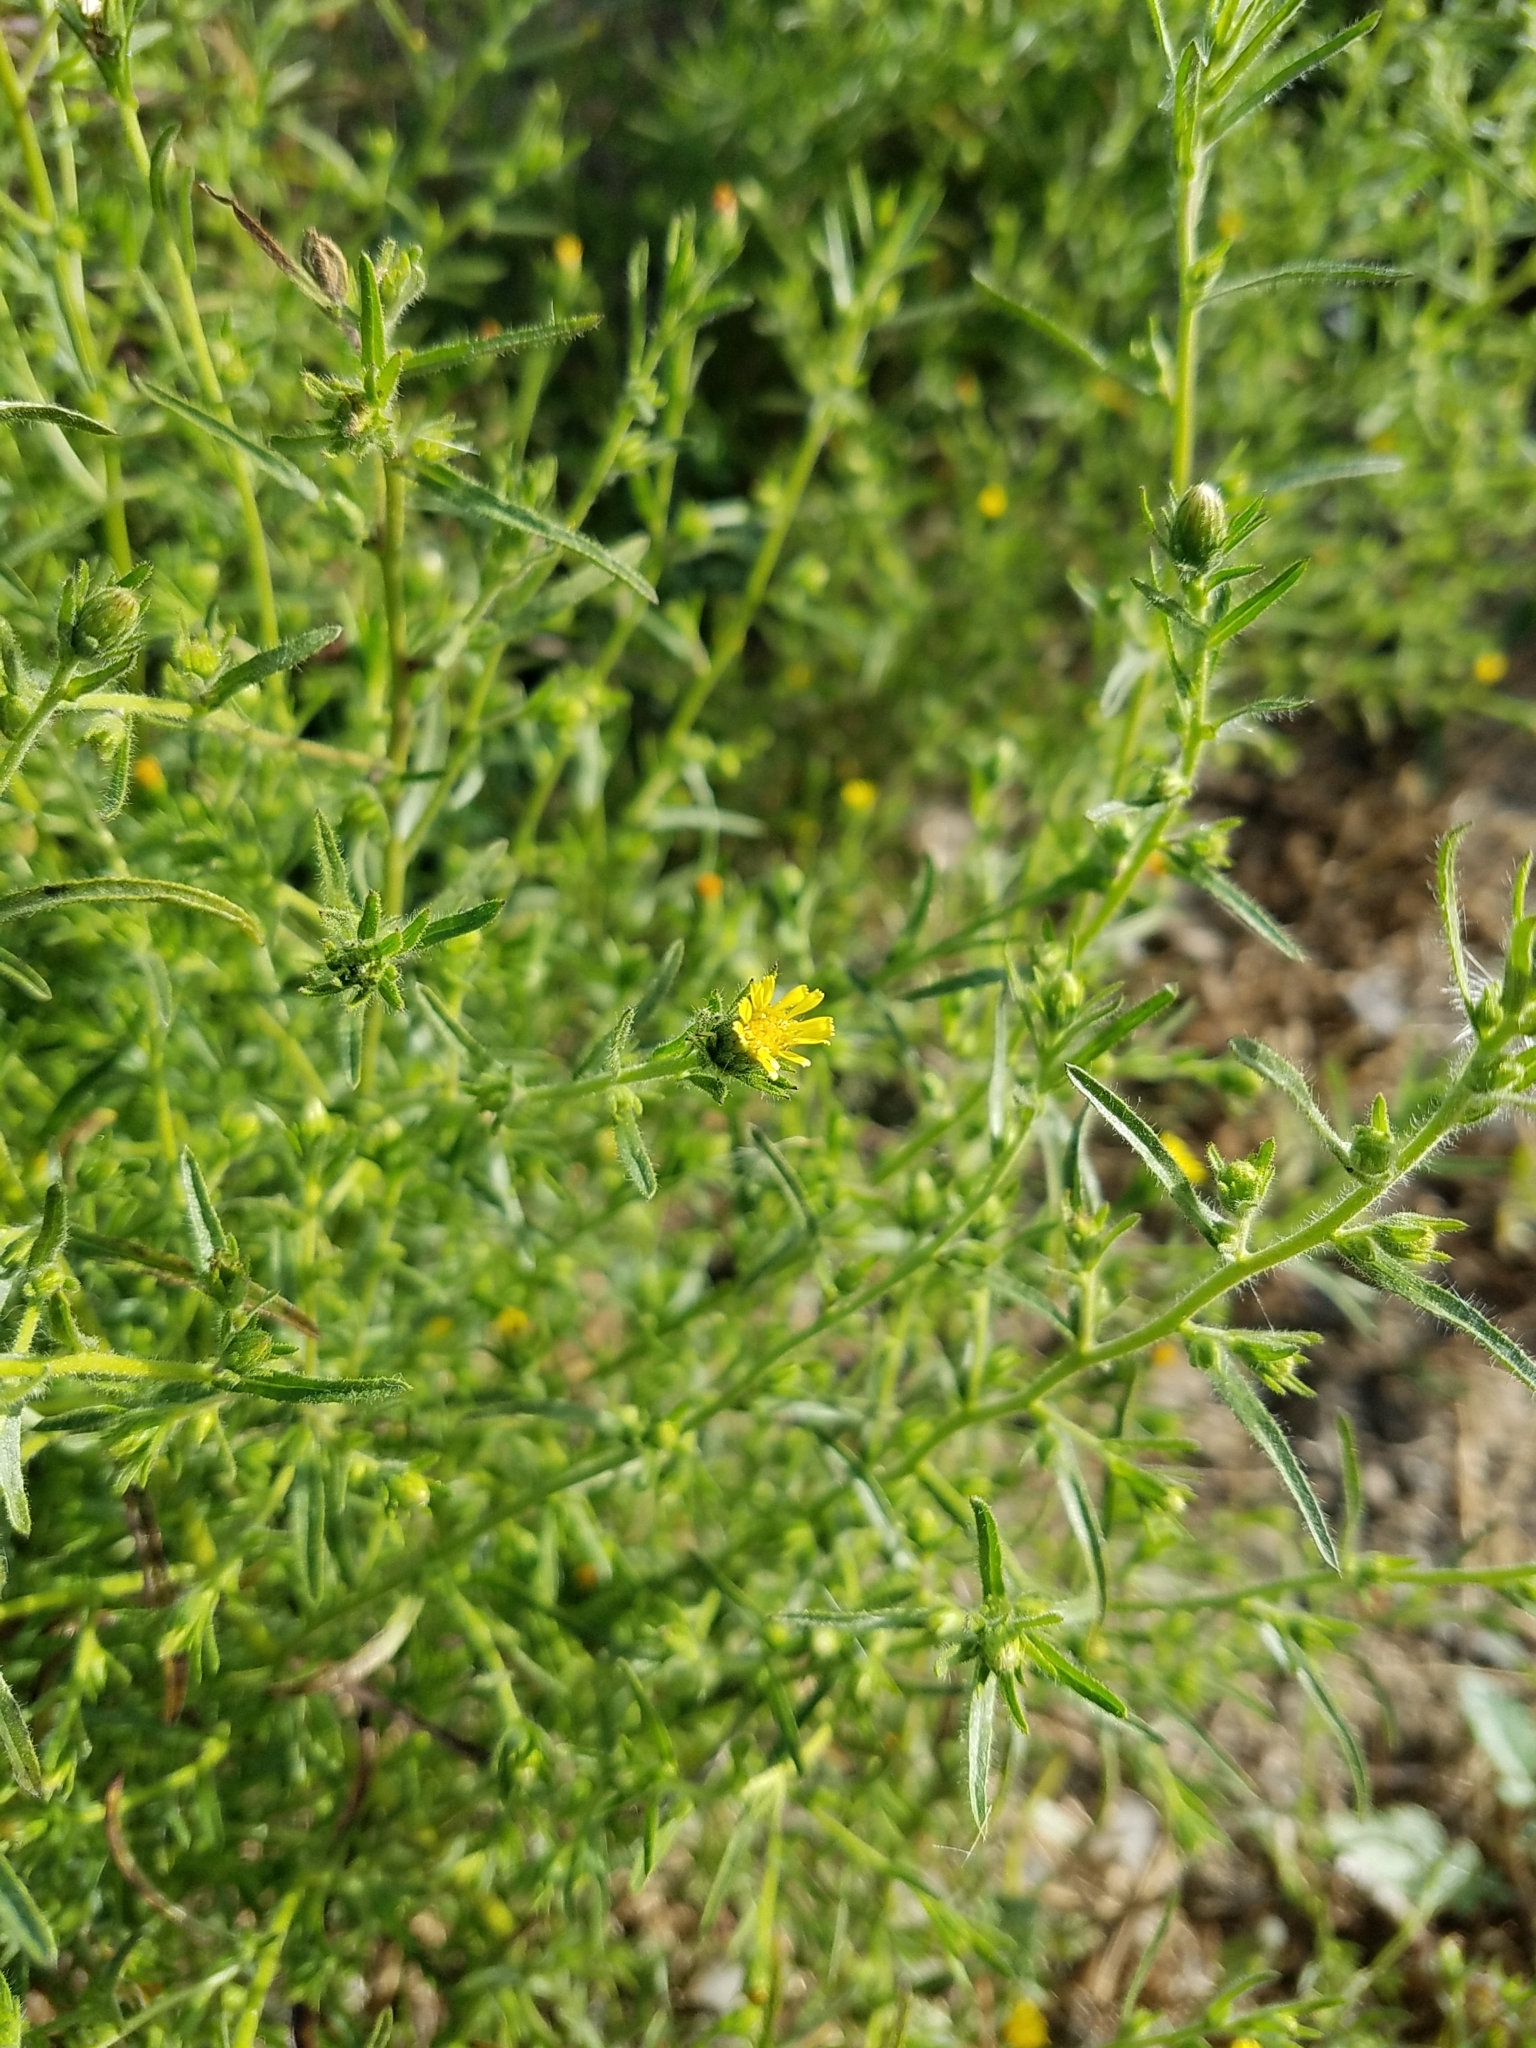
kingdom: Plantae
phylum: Tracheophyta
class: Magnoliopsida
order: Asterales
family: Asteraceae
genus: Dittrichia
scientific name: Dittrichia graveolens
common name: Stinking fleabane
